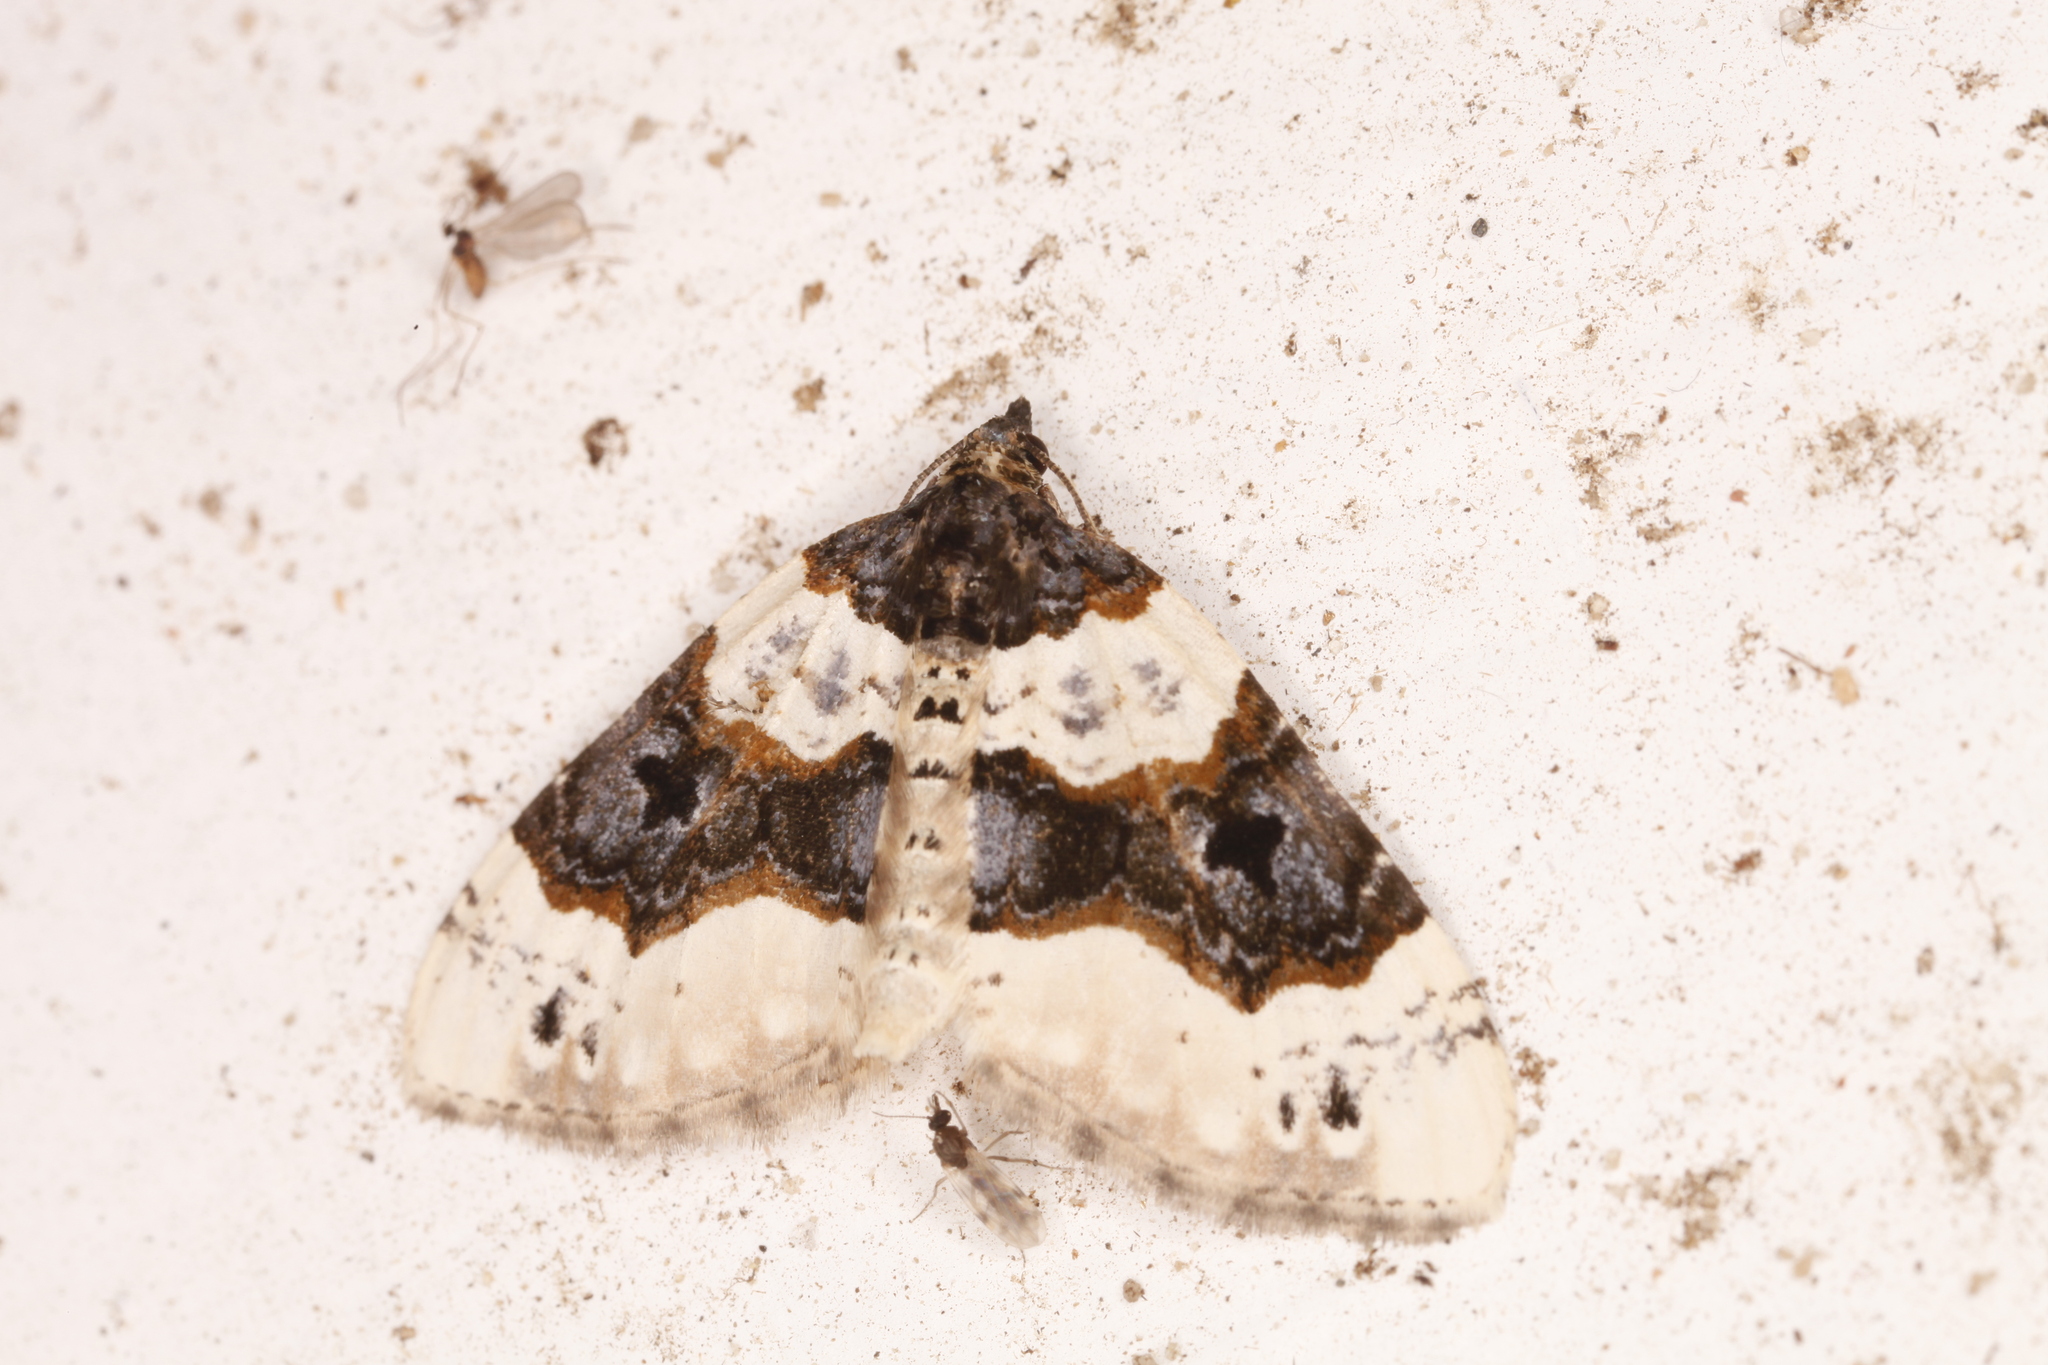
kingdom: Animalia
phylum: Arthropoda
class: Insecta
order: Lepidoptera
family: Geometridae
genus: Cosmorhoe
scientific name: Cosmorhoe ocellata
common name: Purple bar
